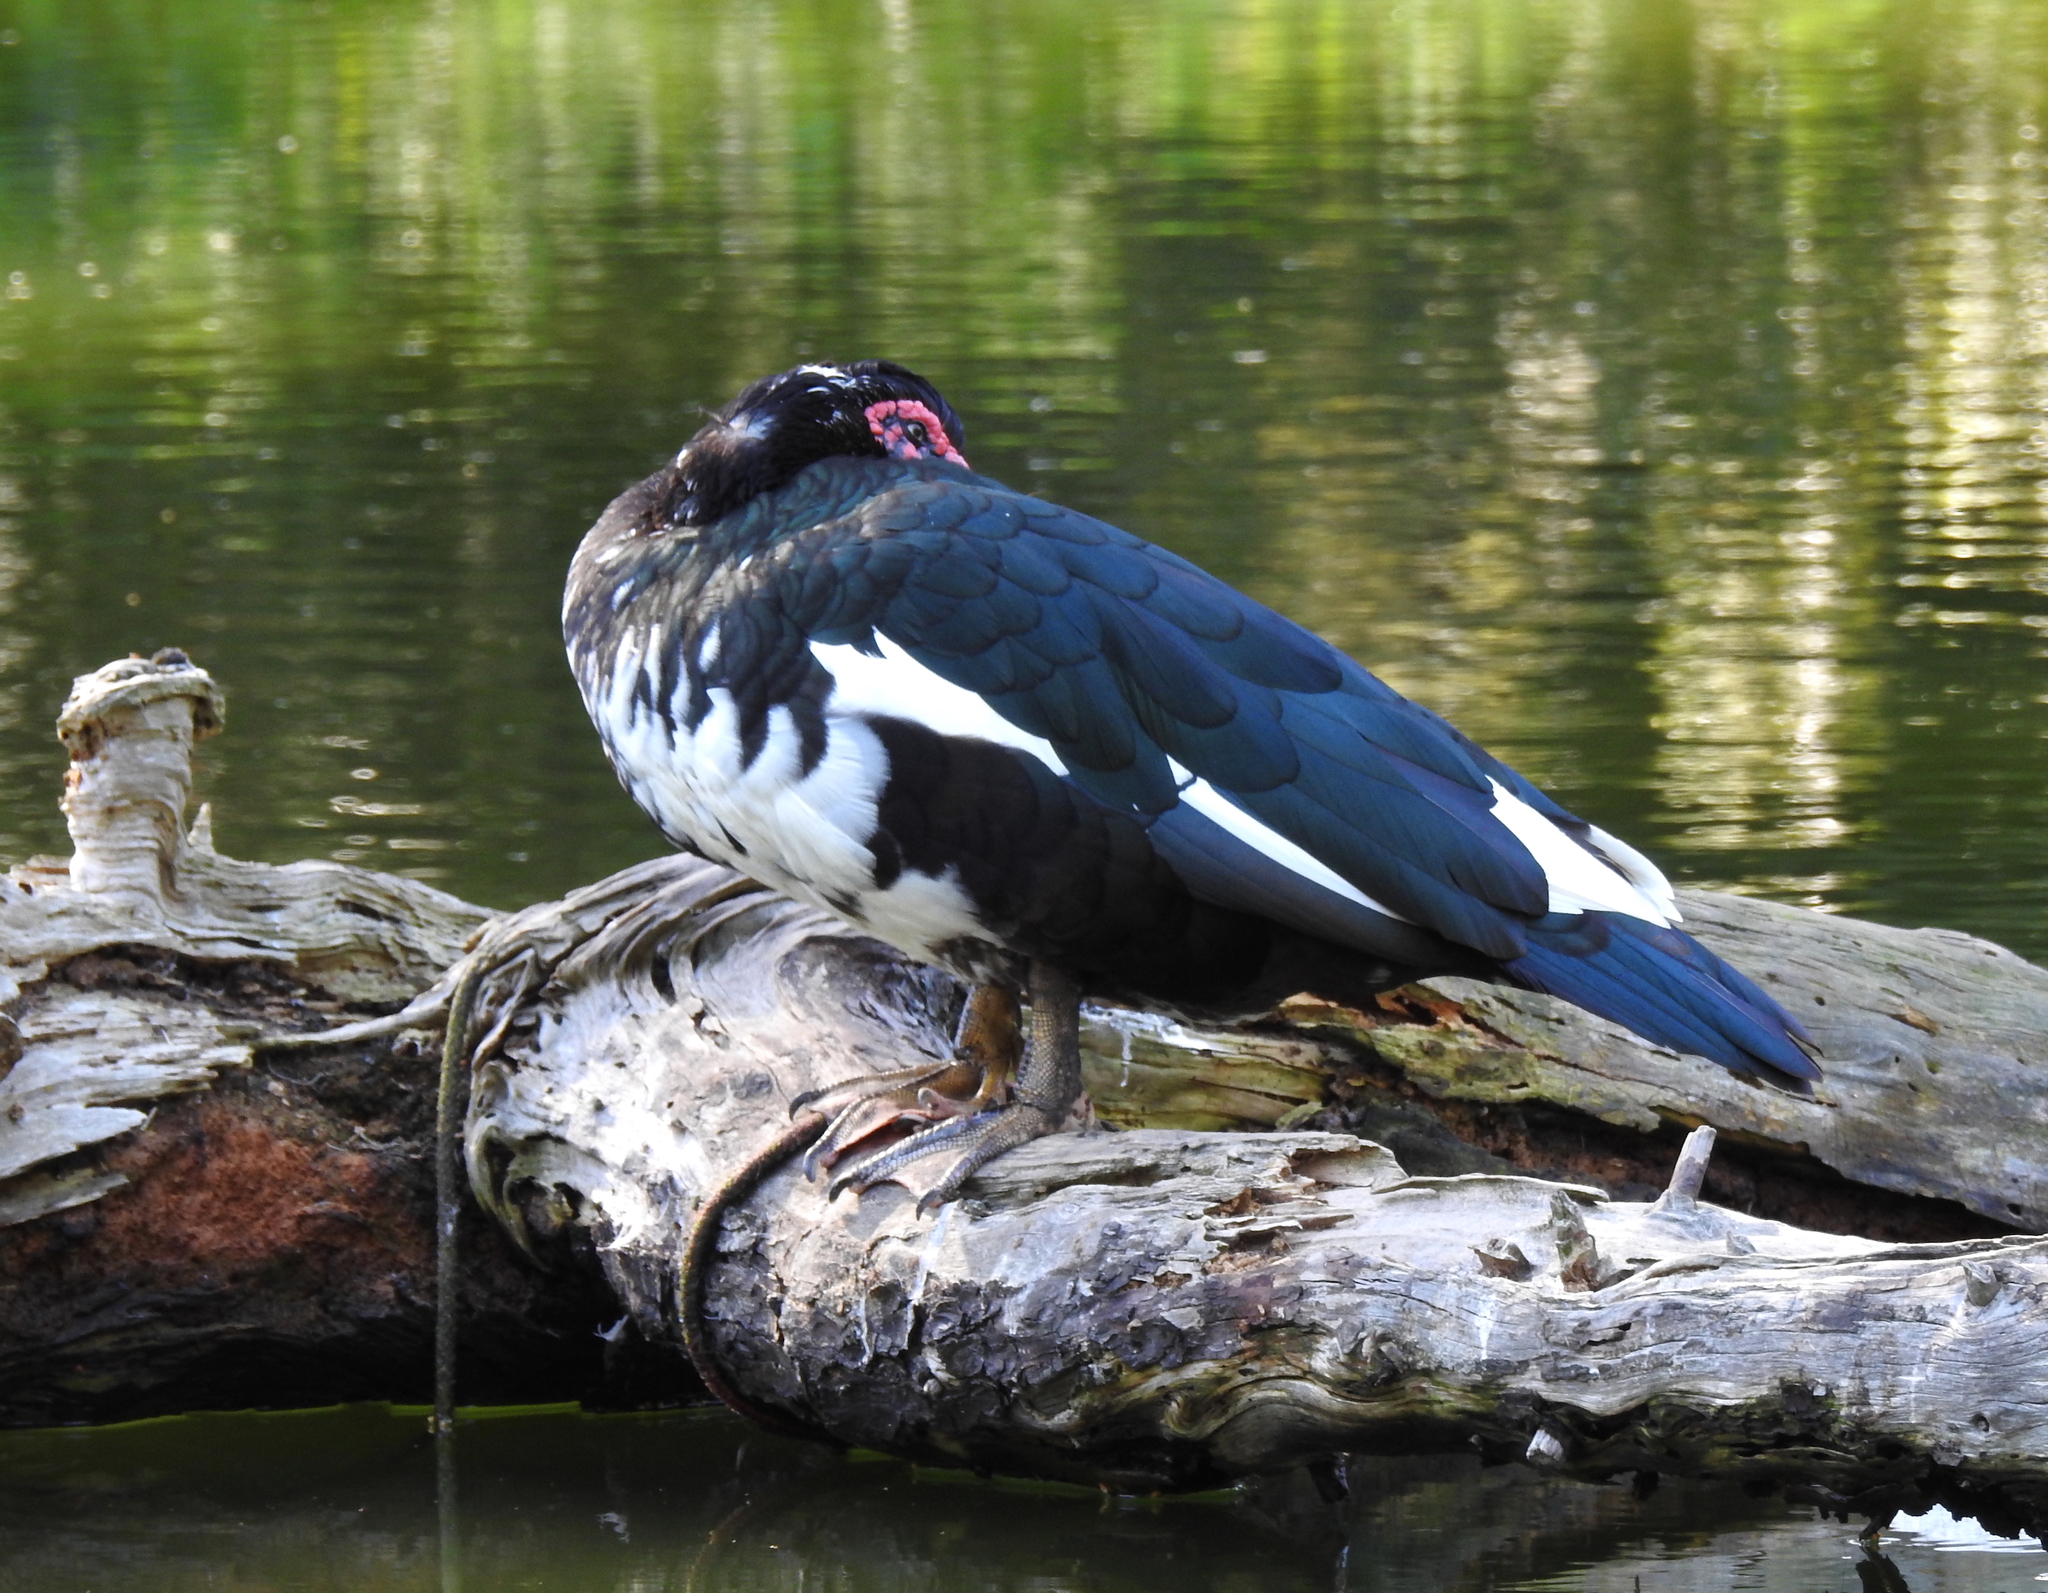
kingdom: Animalia
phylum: Chordata
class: Aves
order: Anseriformes
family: Anatidae
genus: Cairina
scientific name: Cairina moschata
